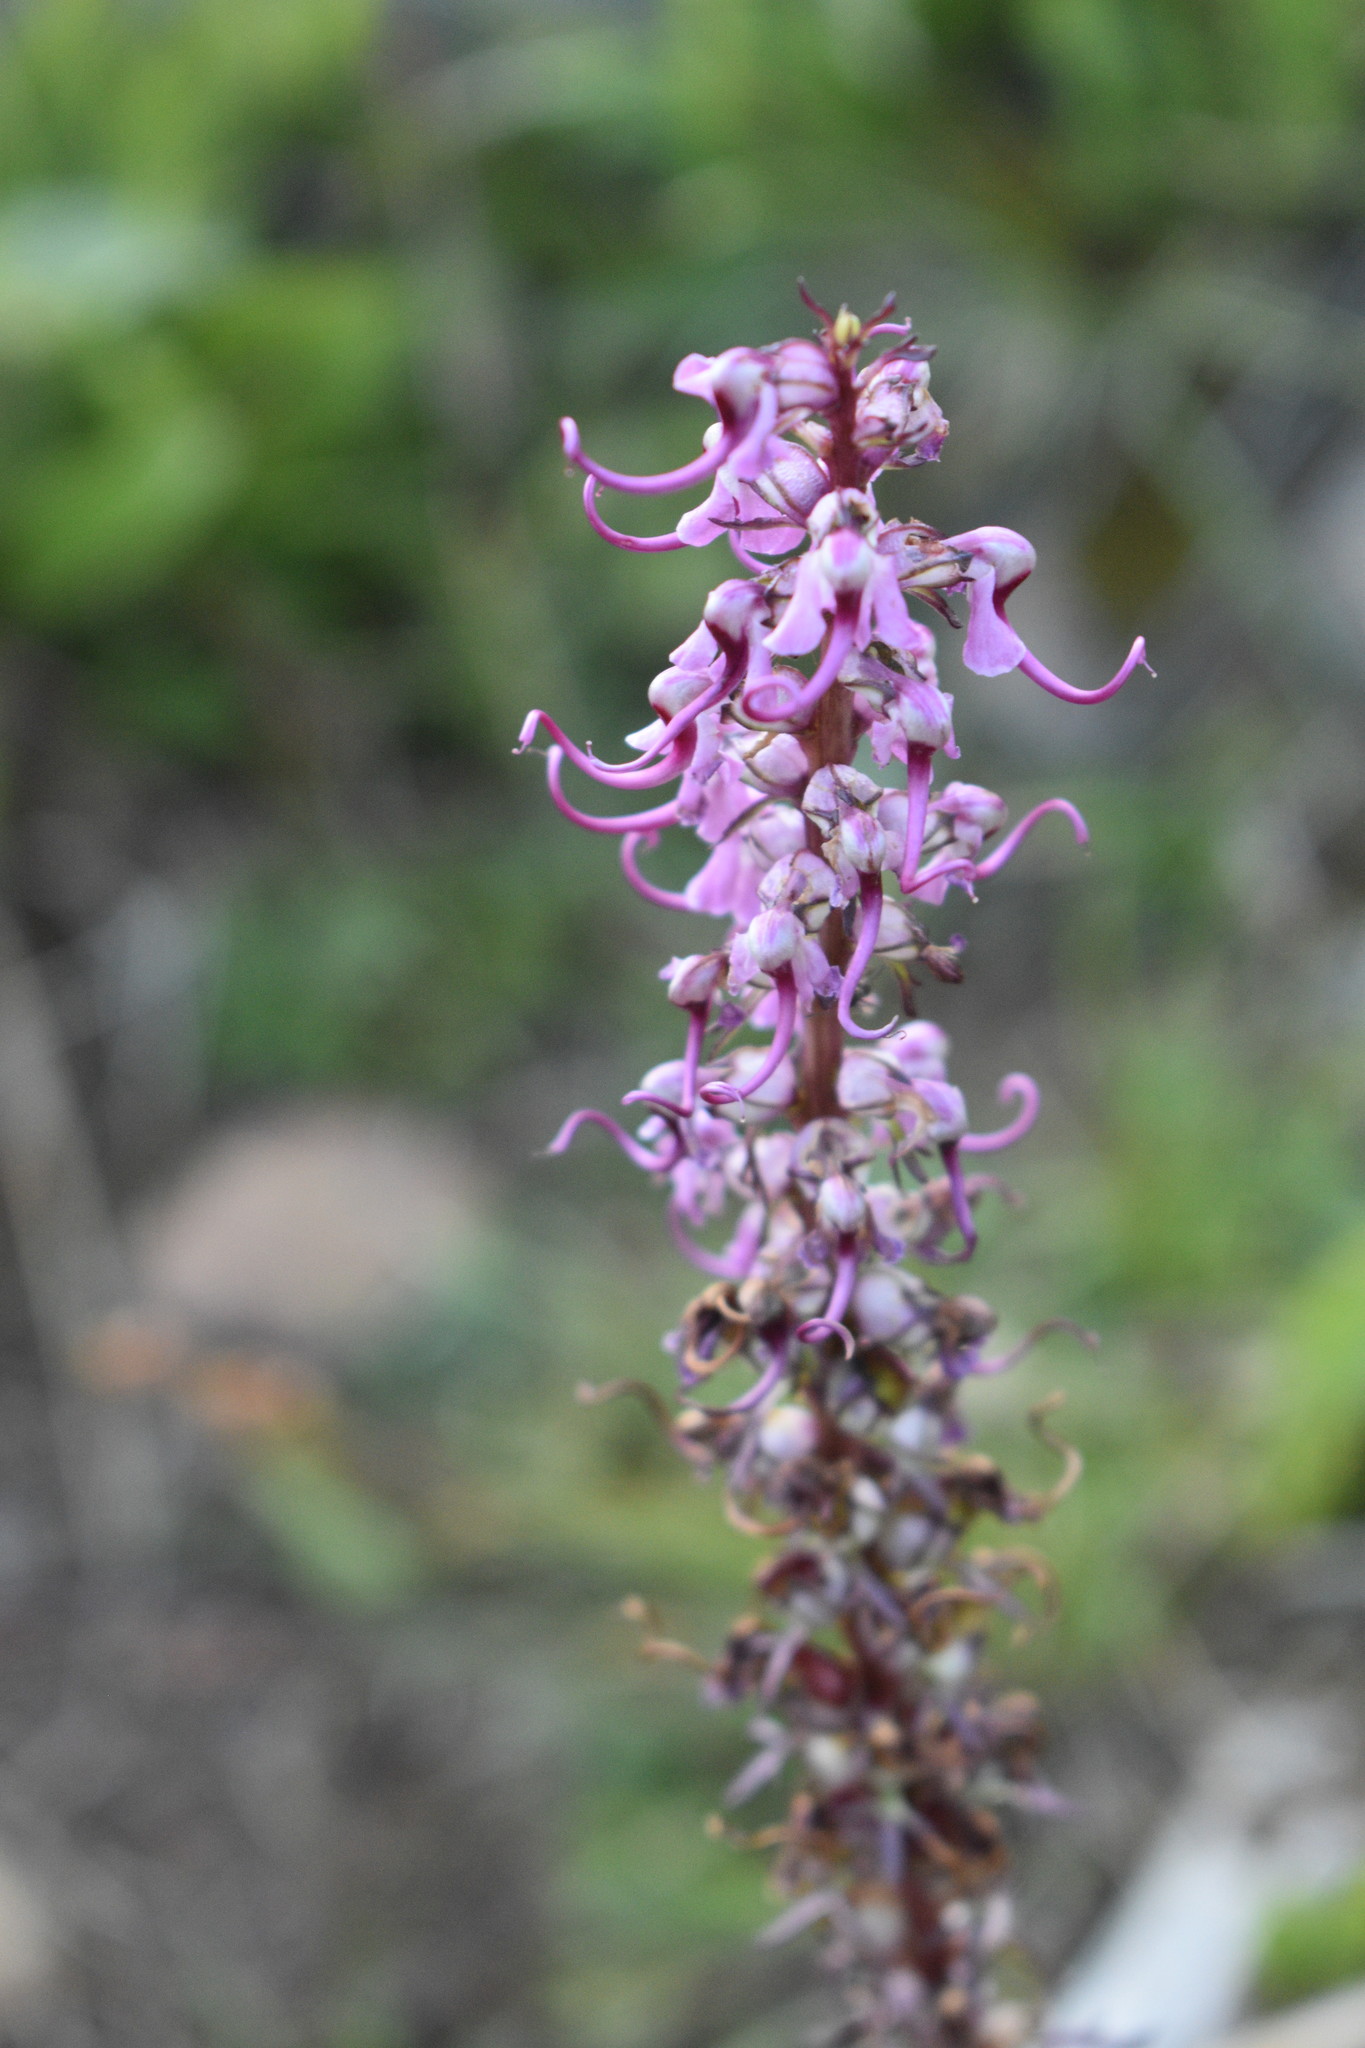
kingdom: Plantae
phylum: Tracheophyta
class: Magnoliopsida
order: Lamiales
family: Orobanchaceae
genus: Pedicularis
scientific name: Pedicularis groenlandica
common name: Elephant's-head
